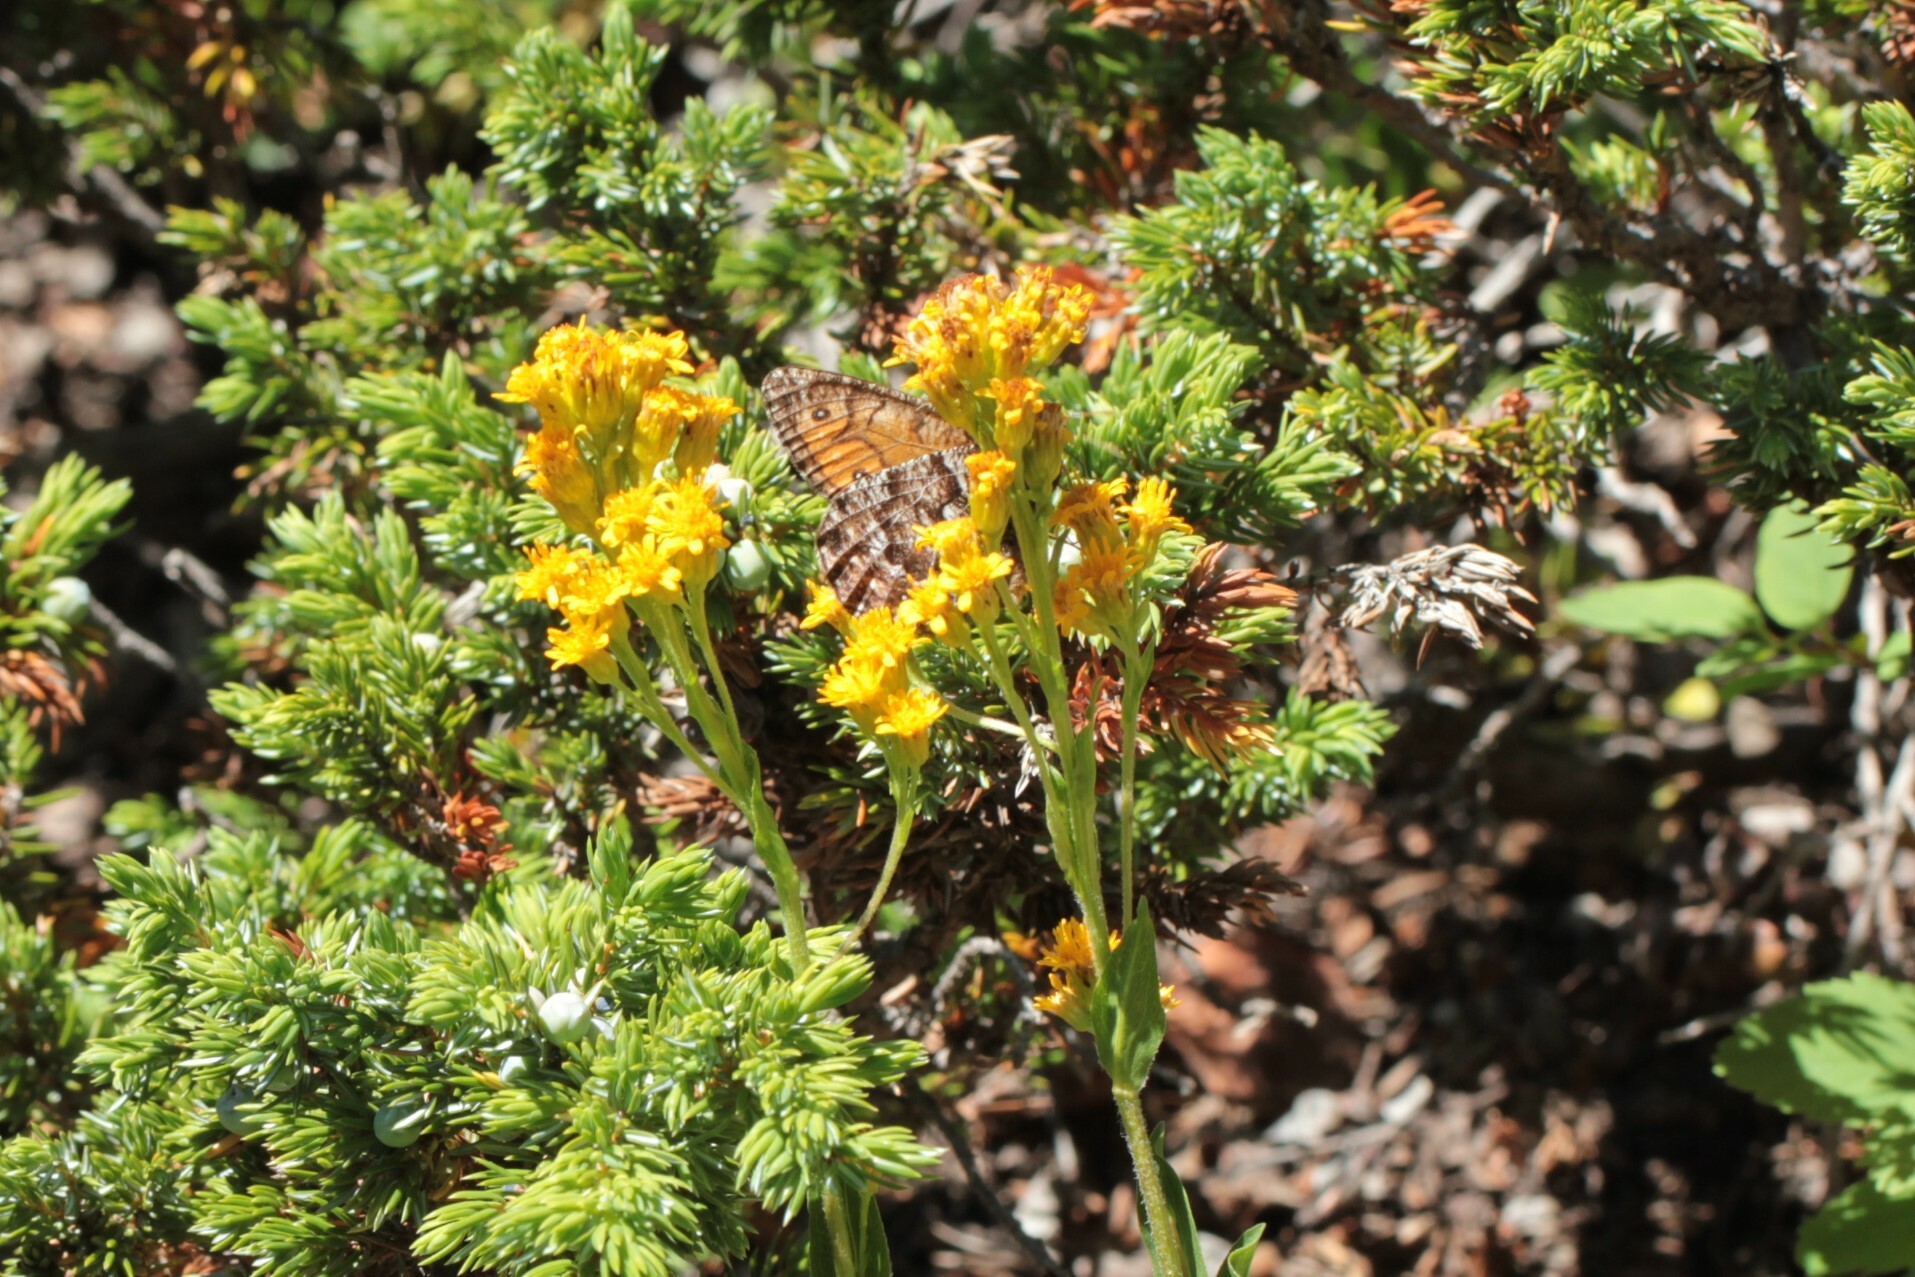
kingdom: Animalia
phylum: Arthropoda
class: Insecta
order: Lepidoptera
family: Nymphalidae
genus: Oeneis
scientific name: Oeneis chryxus
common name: Chryxus arctic
